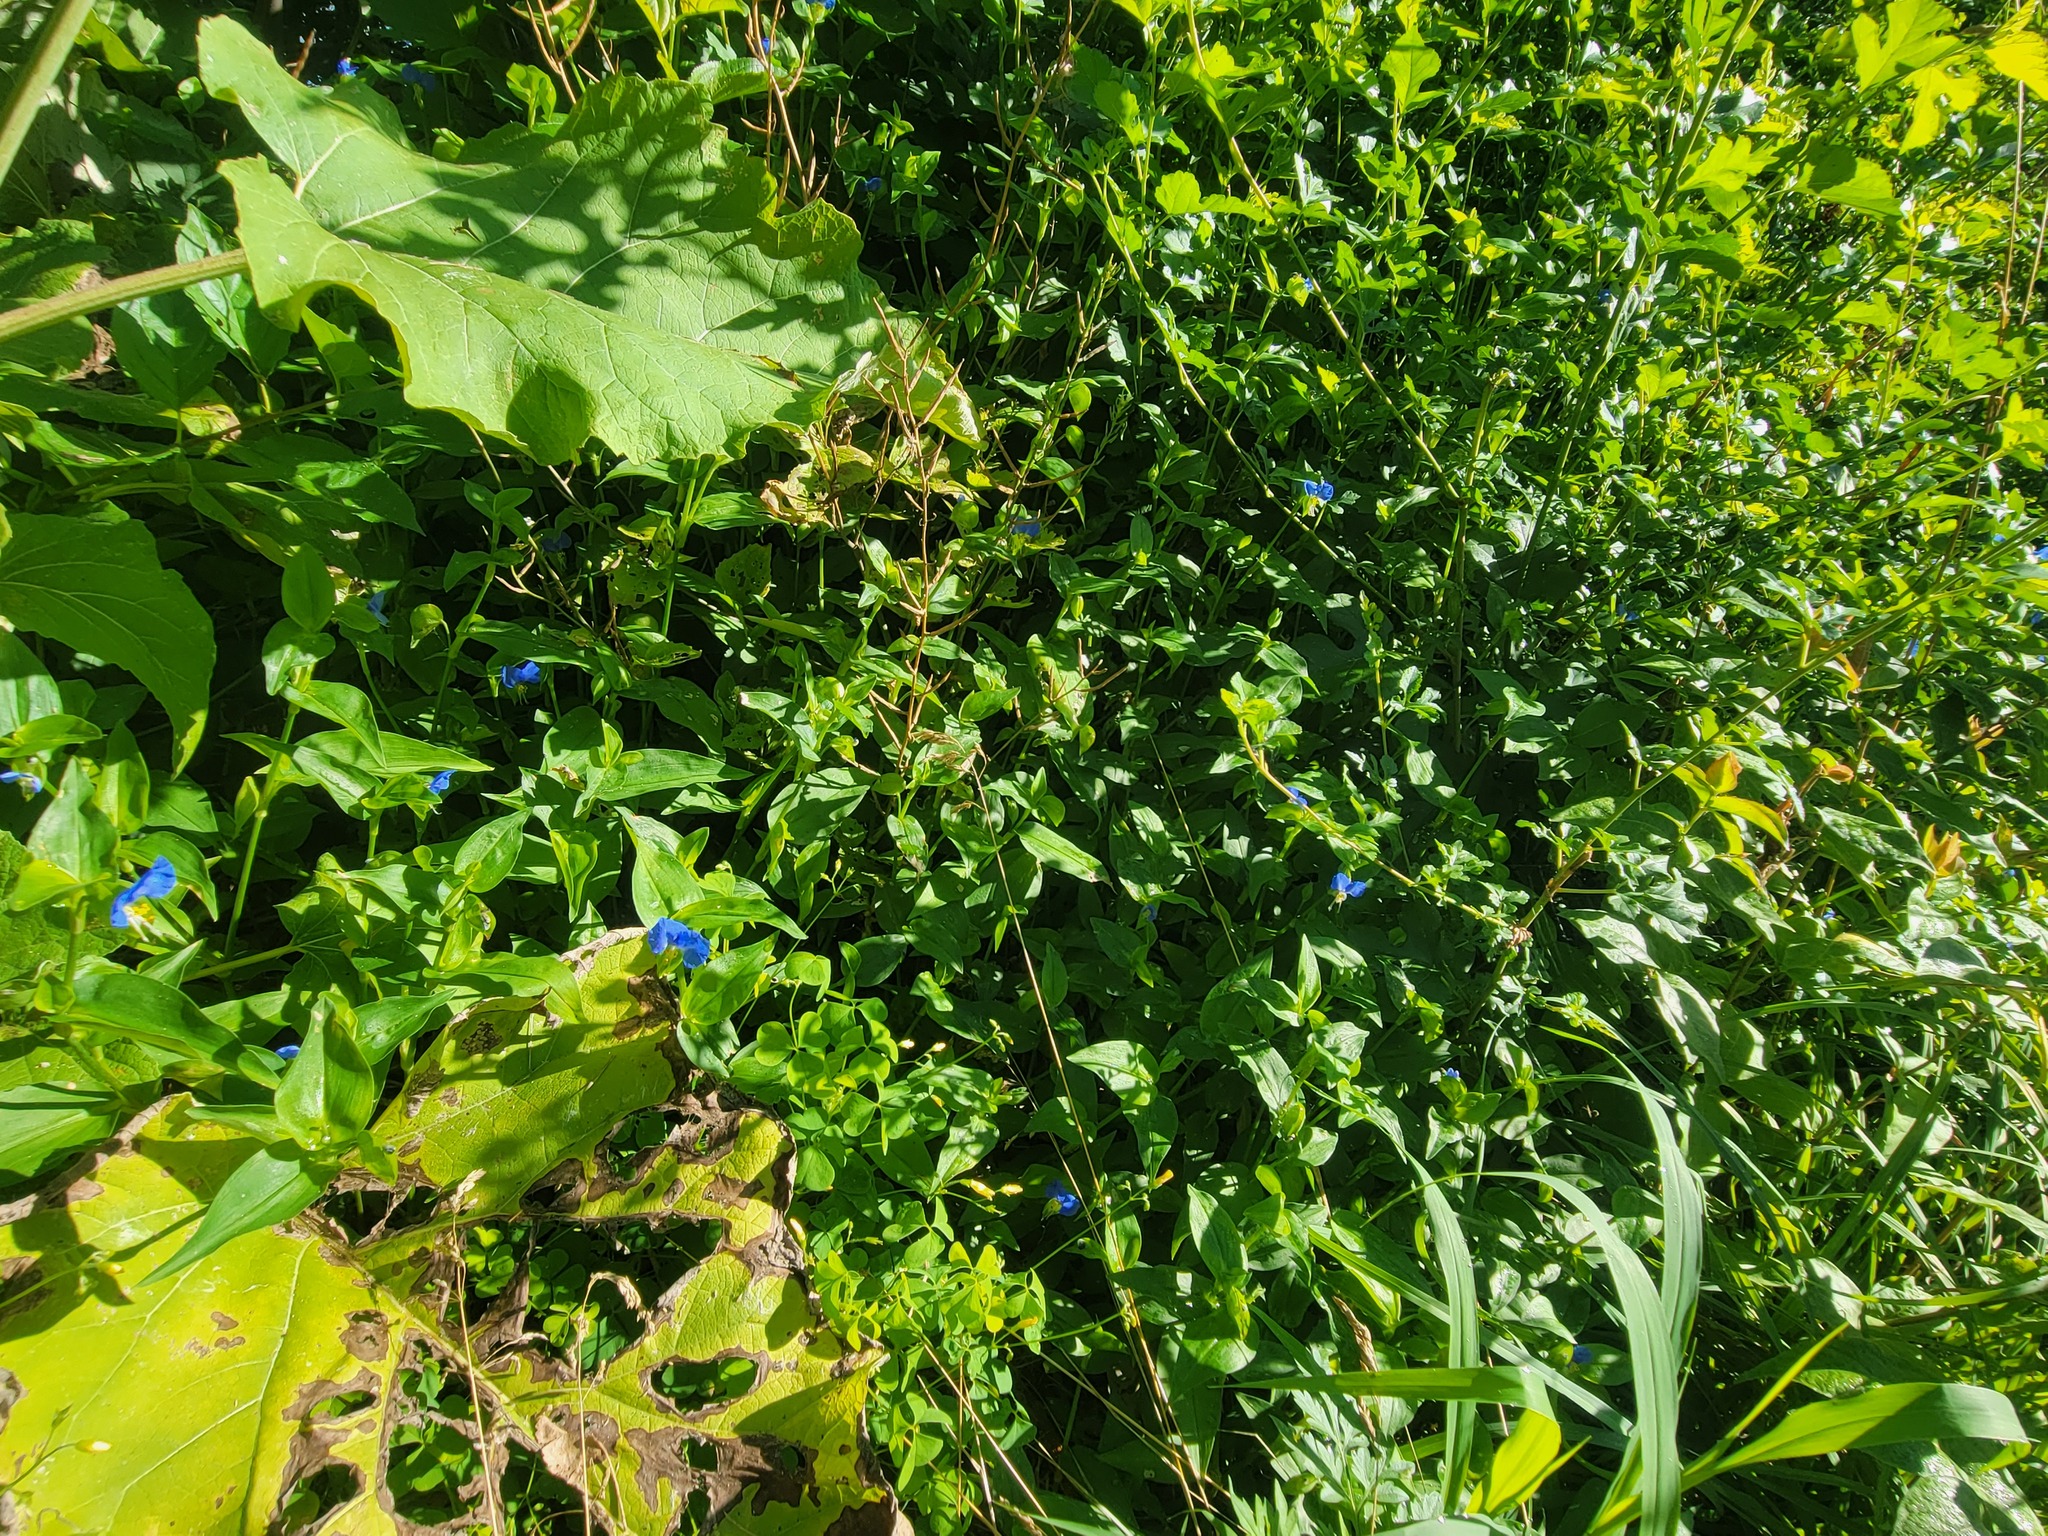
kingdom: Plantae
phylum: Tracheophyta
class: Liliopsida
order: Commelinales
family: Commelinaceae
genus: Commelina
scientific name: Commelina communis
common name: Asiatic dayflower
